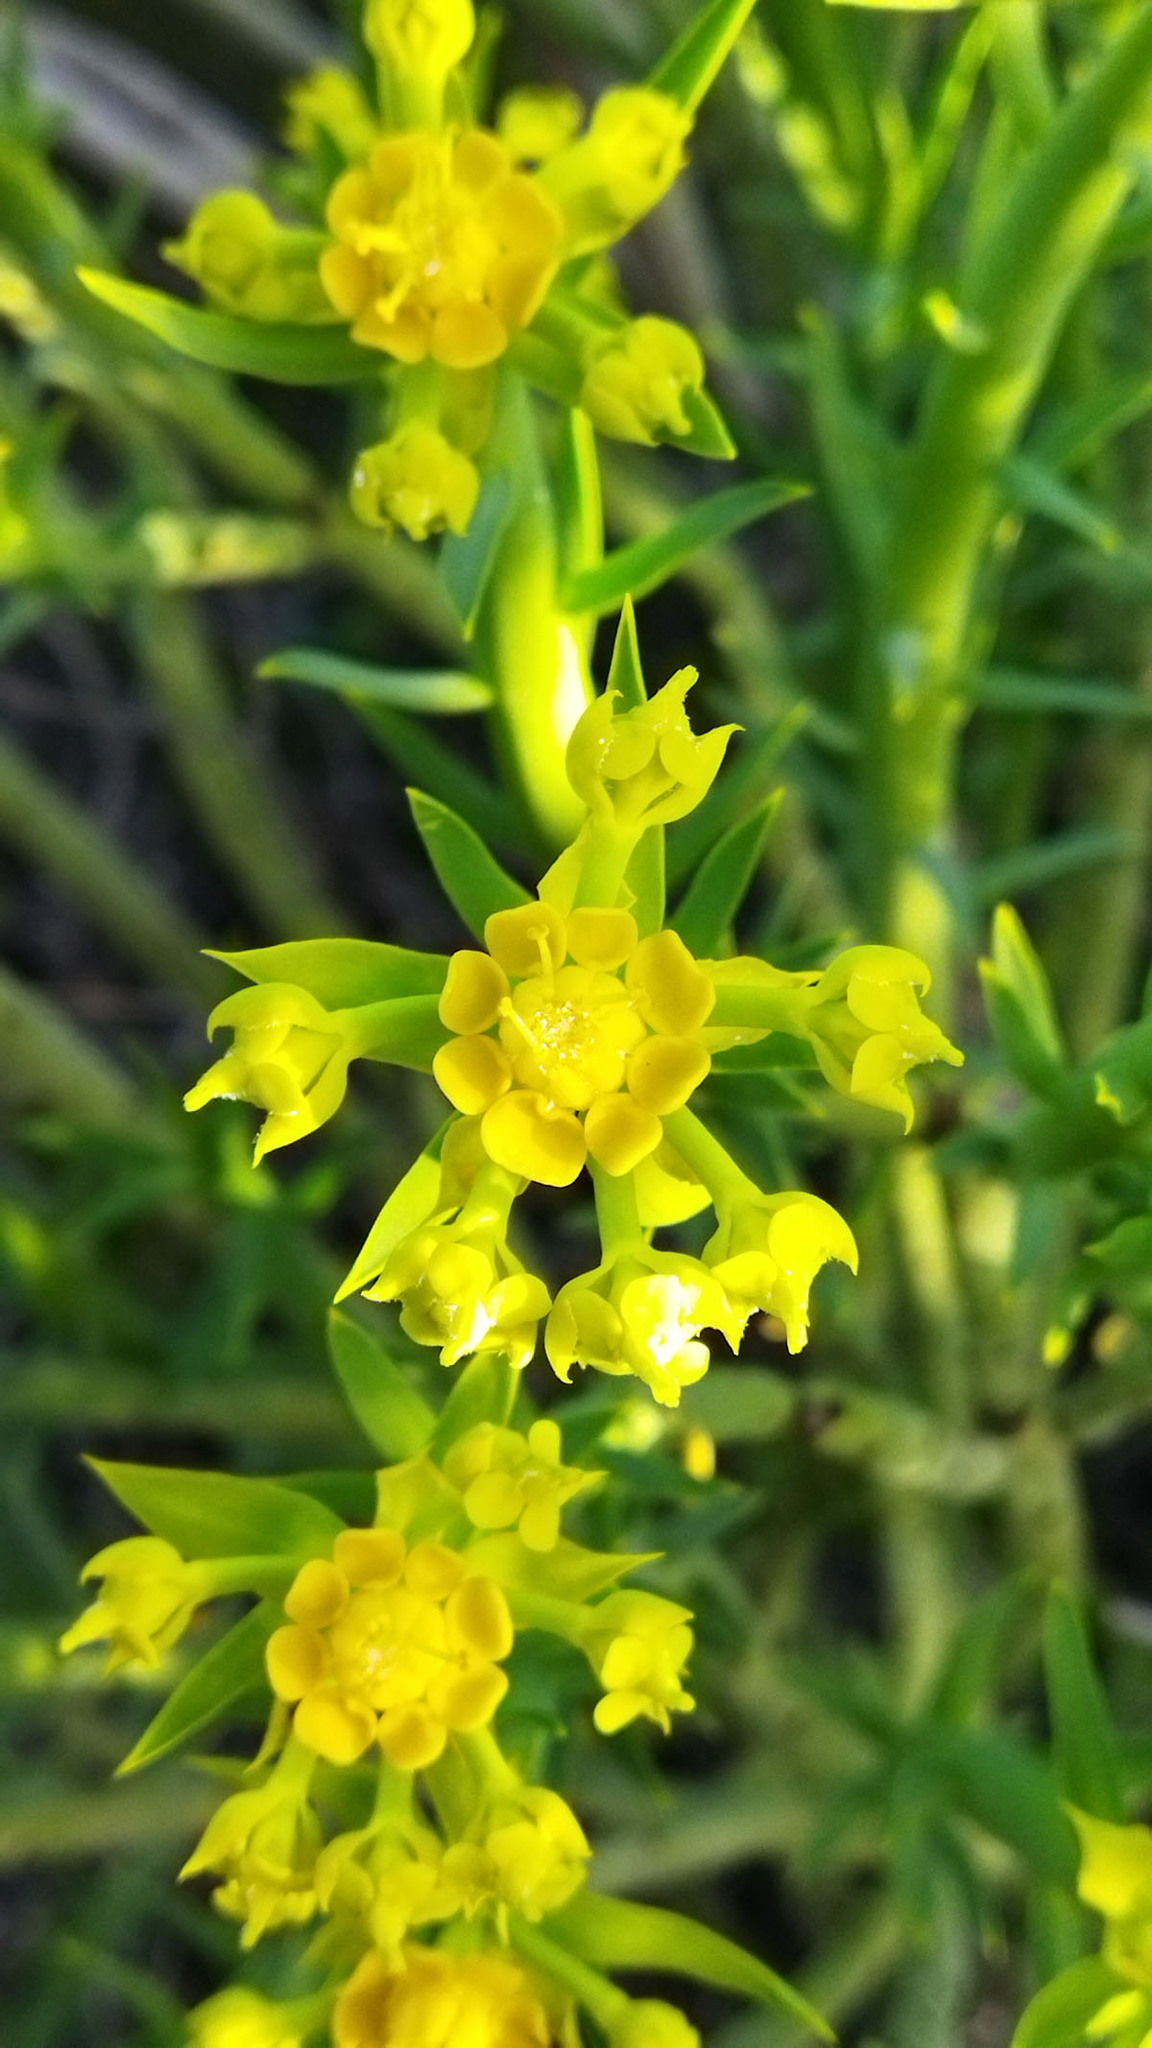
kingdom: Plantae
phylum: Tracheophyta
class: Magnoliopsida
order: Malpighiales
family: Euphorbiaceae
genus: Euphorbia
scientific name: Euphorbia mauritanica
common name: Jackal's-food
